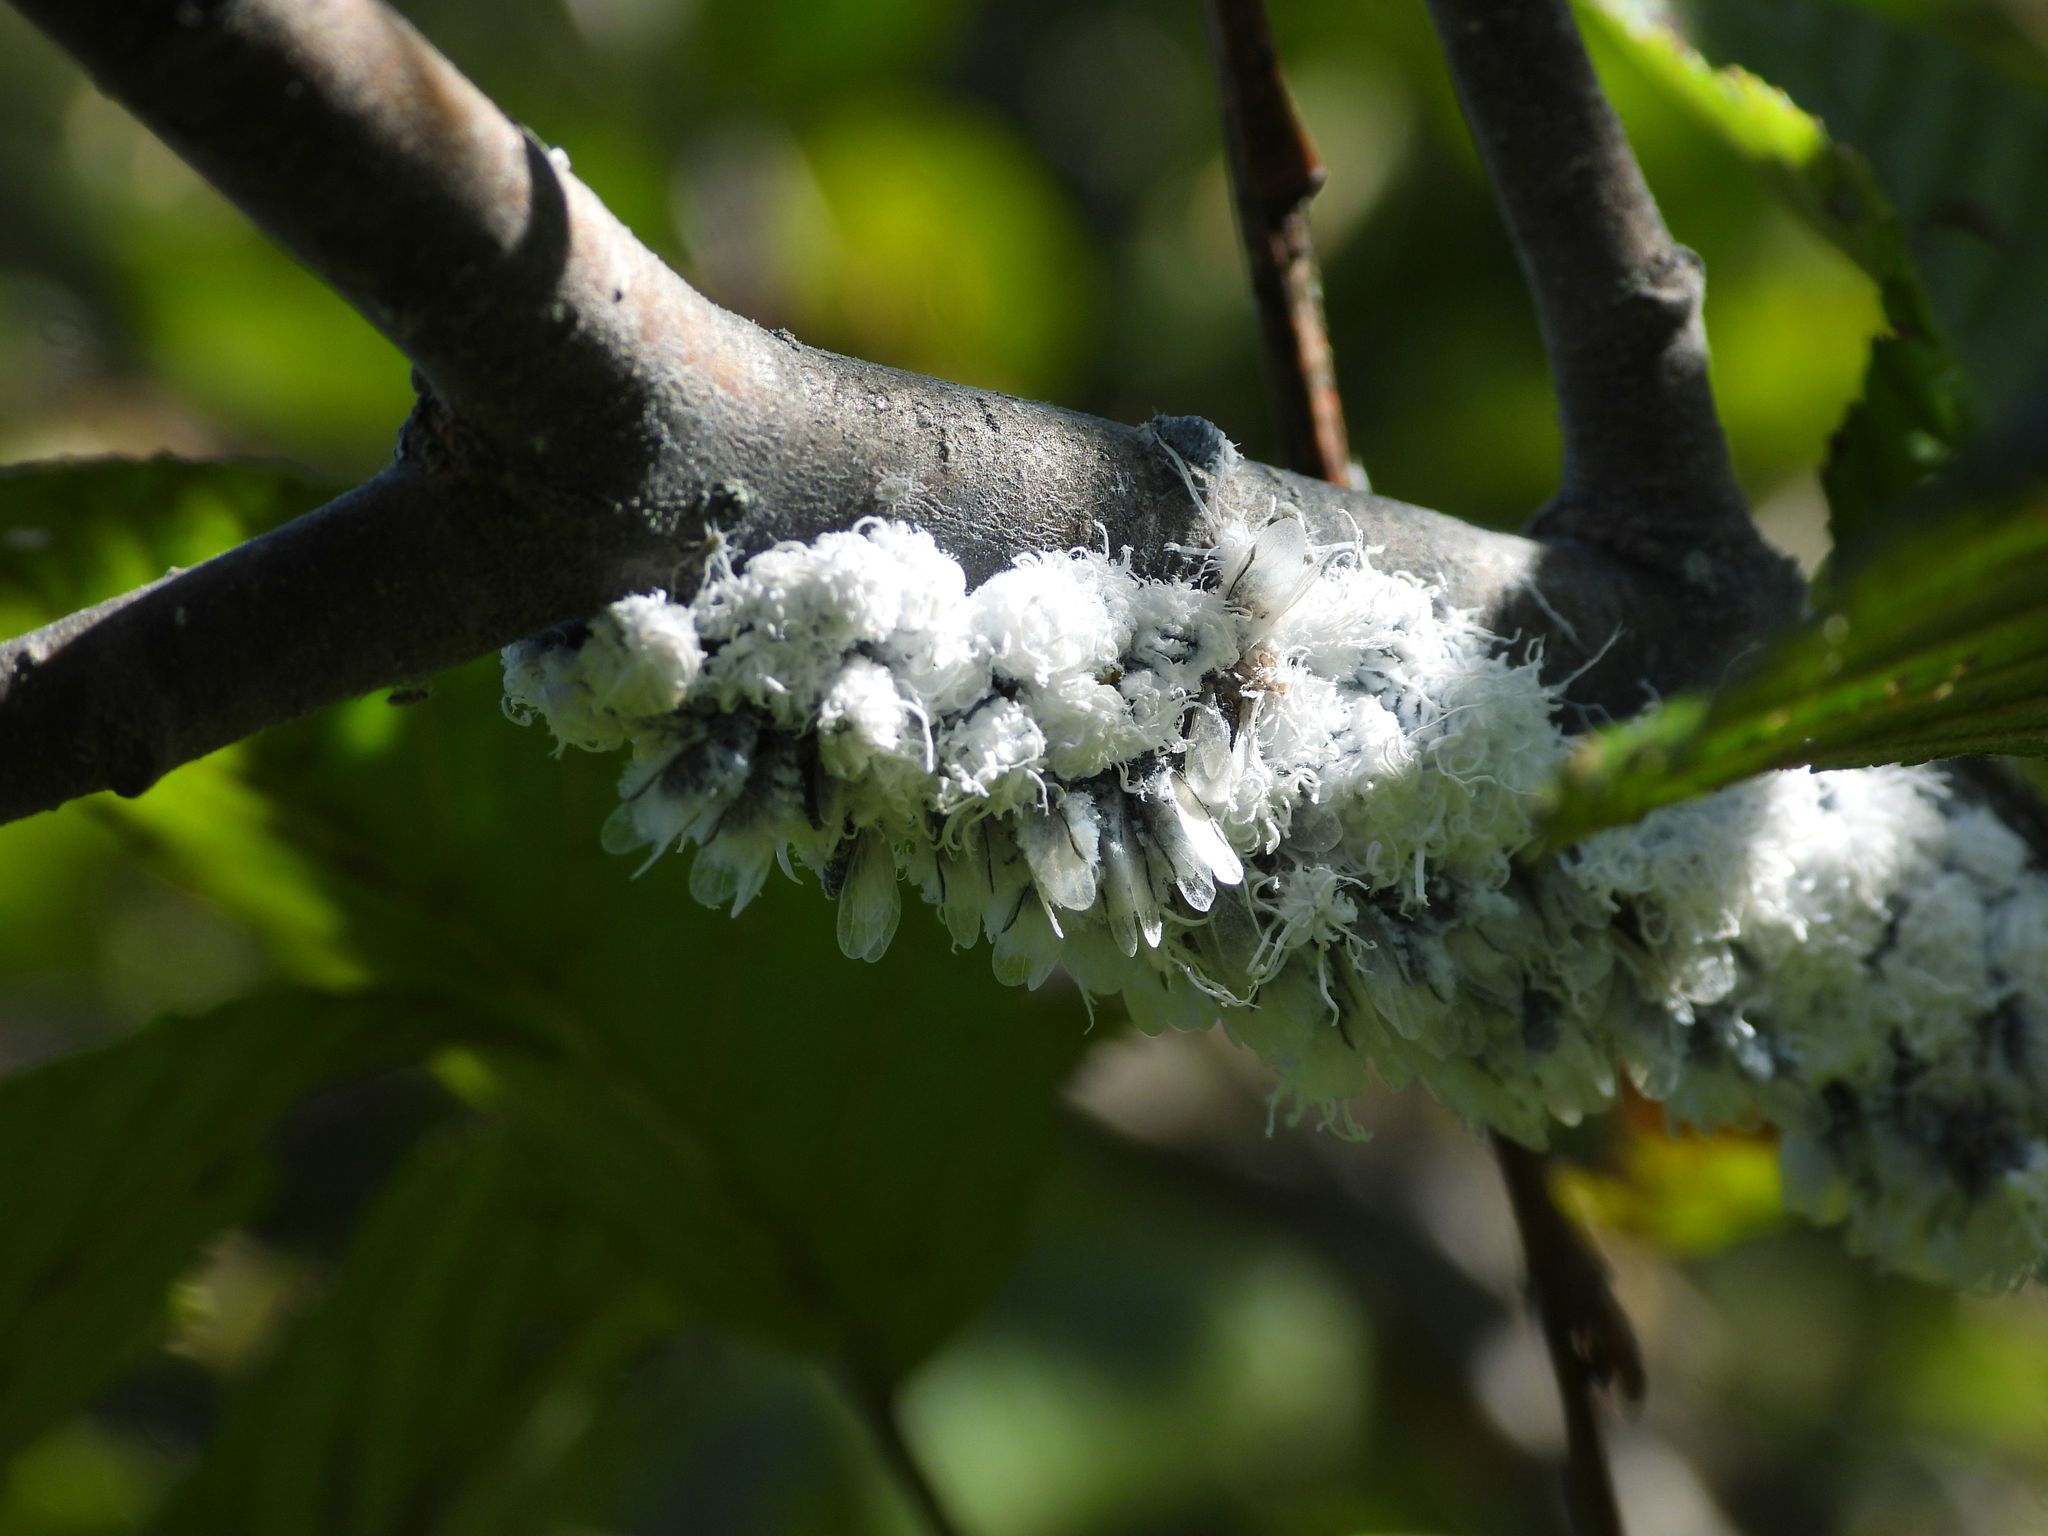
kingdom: Animalia
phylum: Arthropoda
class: Insecta
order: Hemiptera
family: Aphididae
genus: Prociphilus
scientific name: Prociphilus tessellatus
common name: Woolly alder aphid
